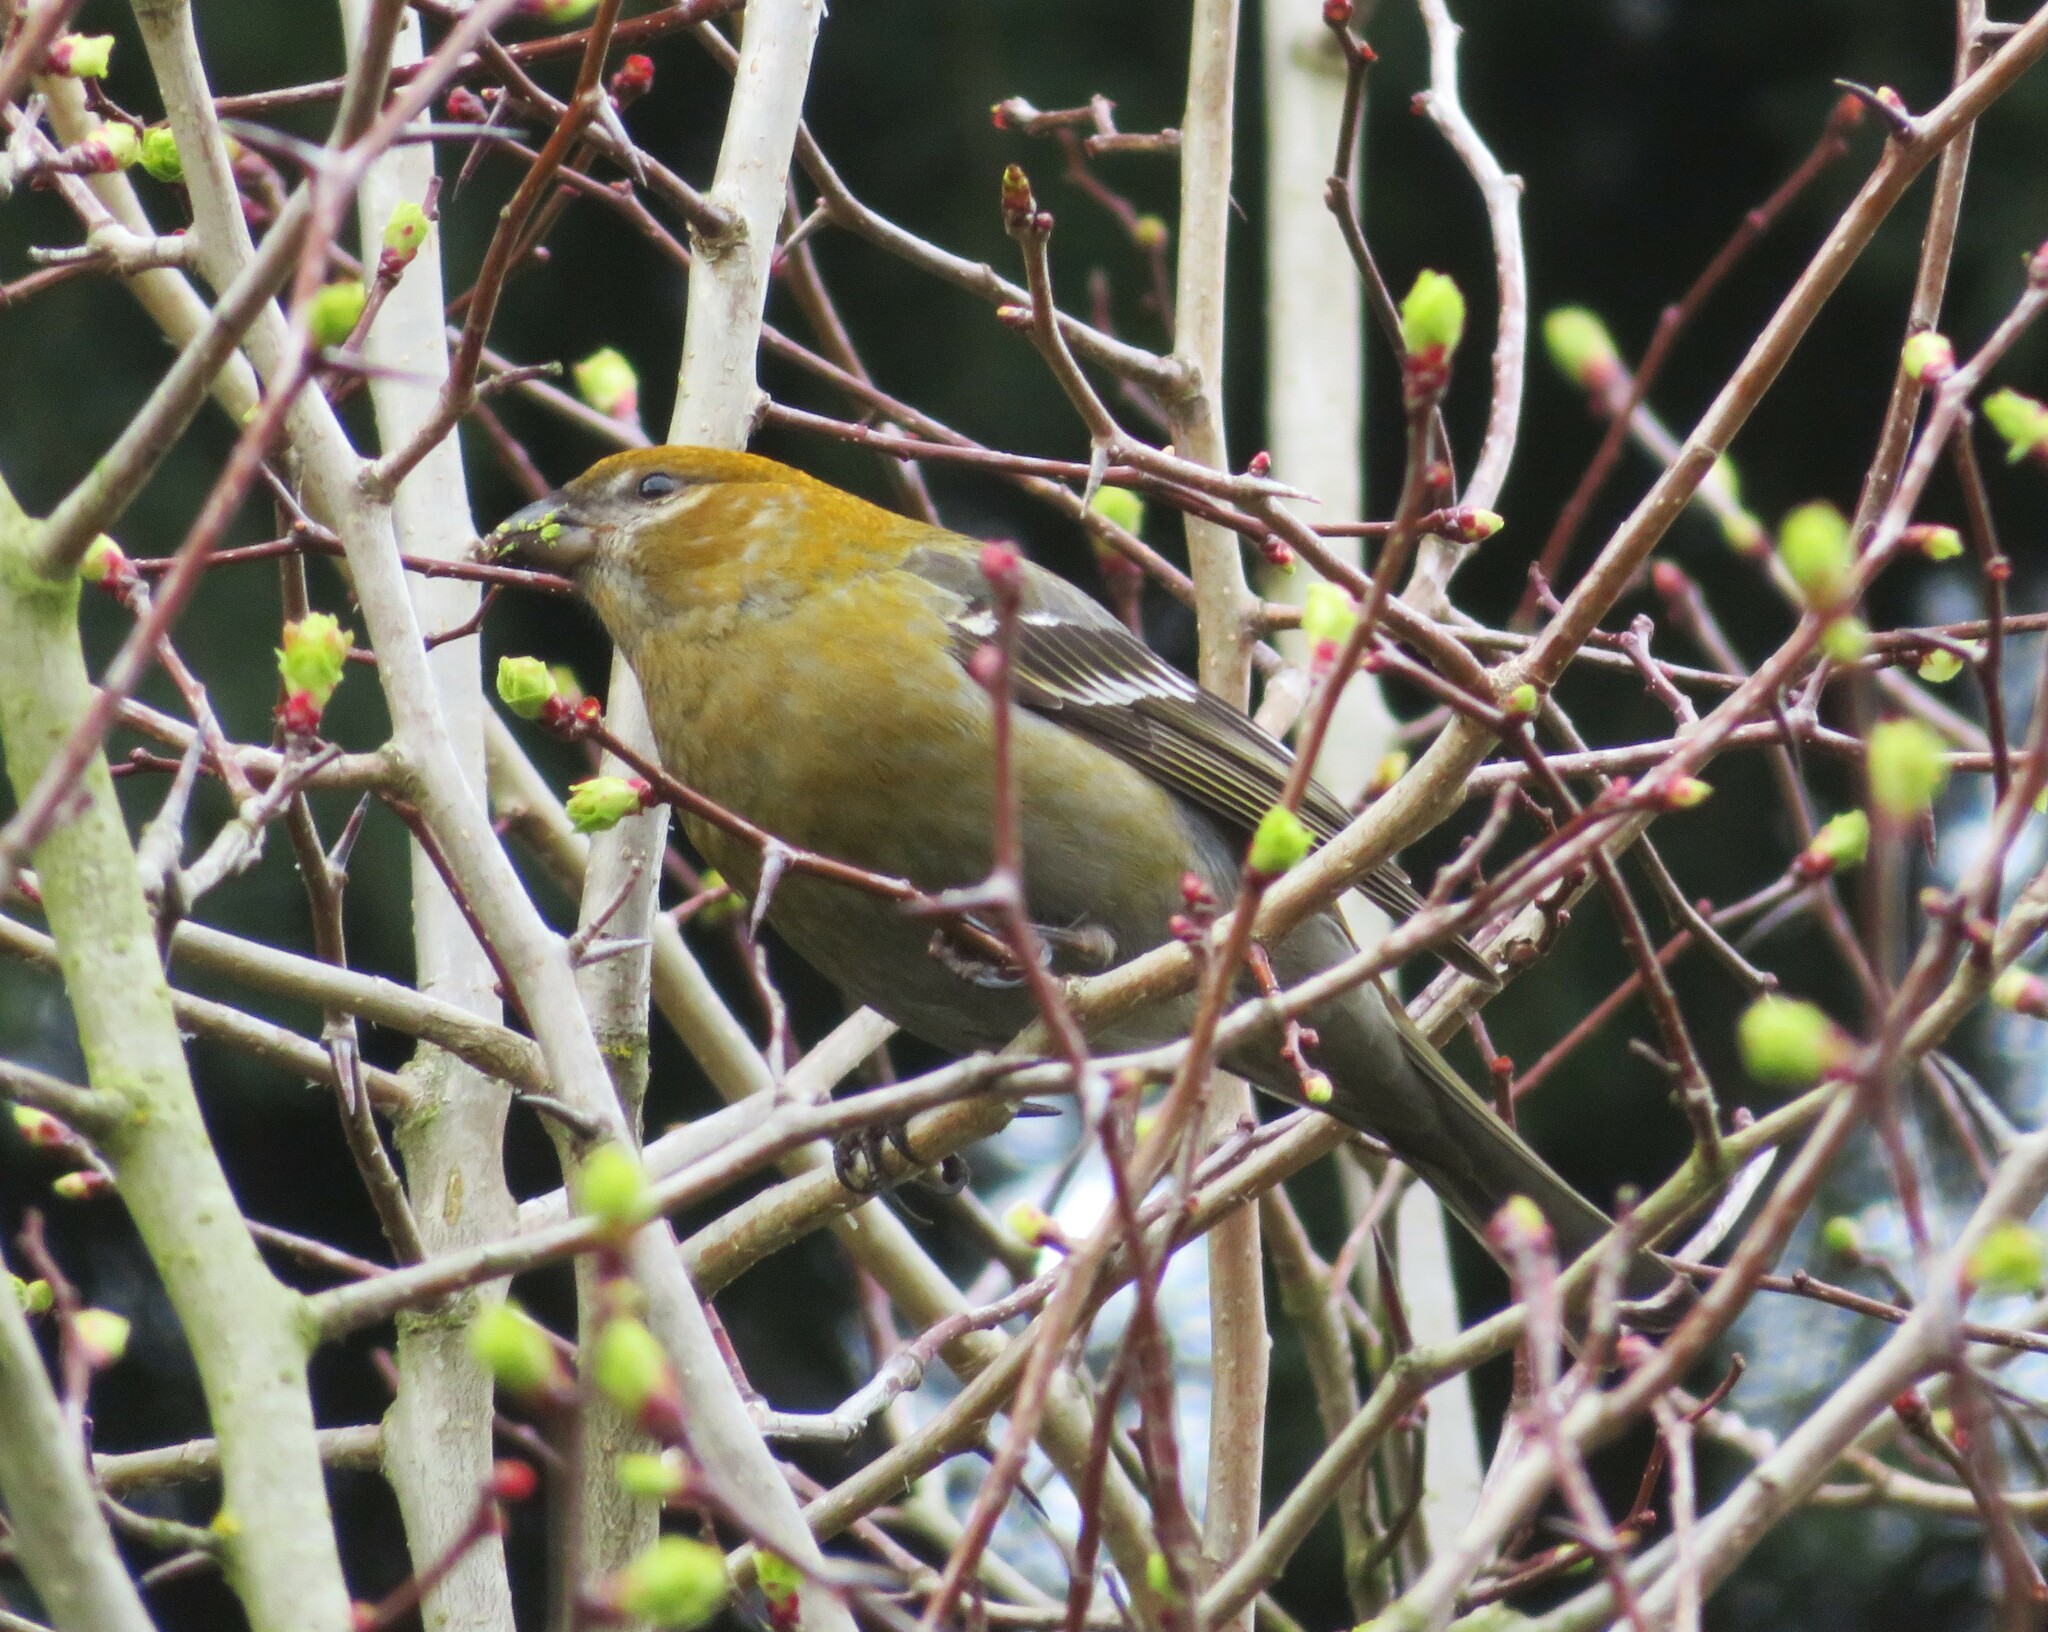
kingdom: Animalia
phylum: Chordata
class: Aves
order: Passeriformes
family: Fringillidae
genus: Pinicola
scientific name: Pinicola enucleator
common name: Pine grosbeak
